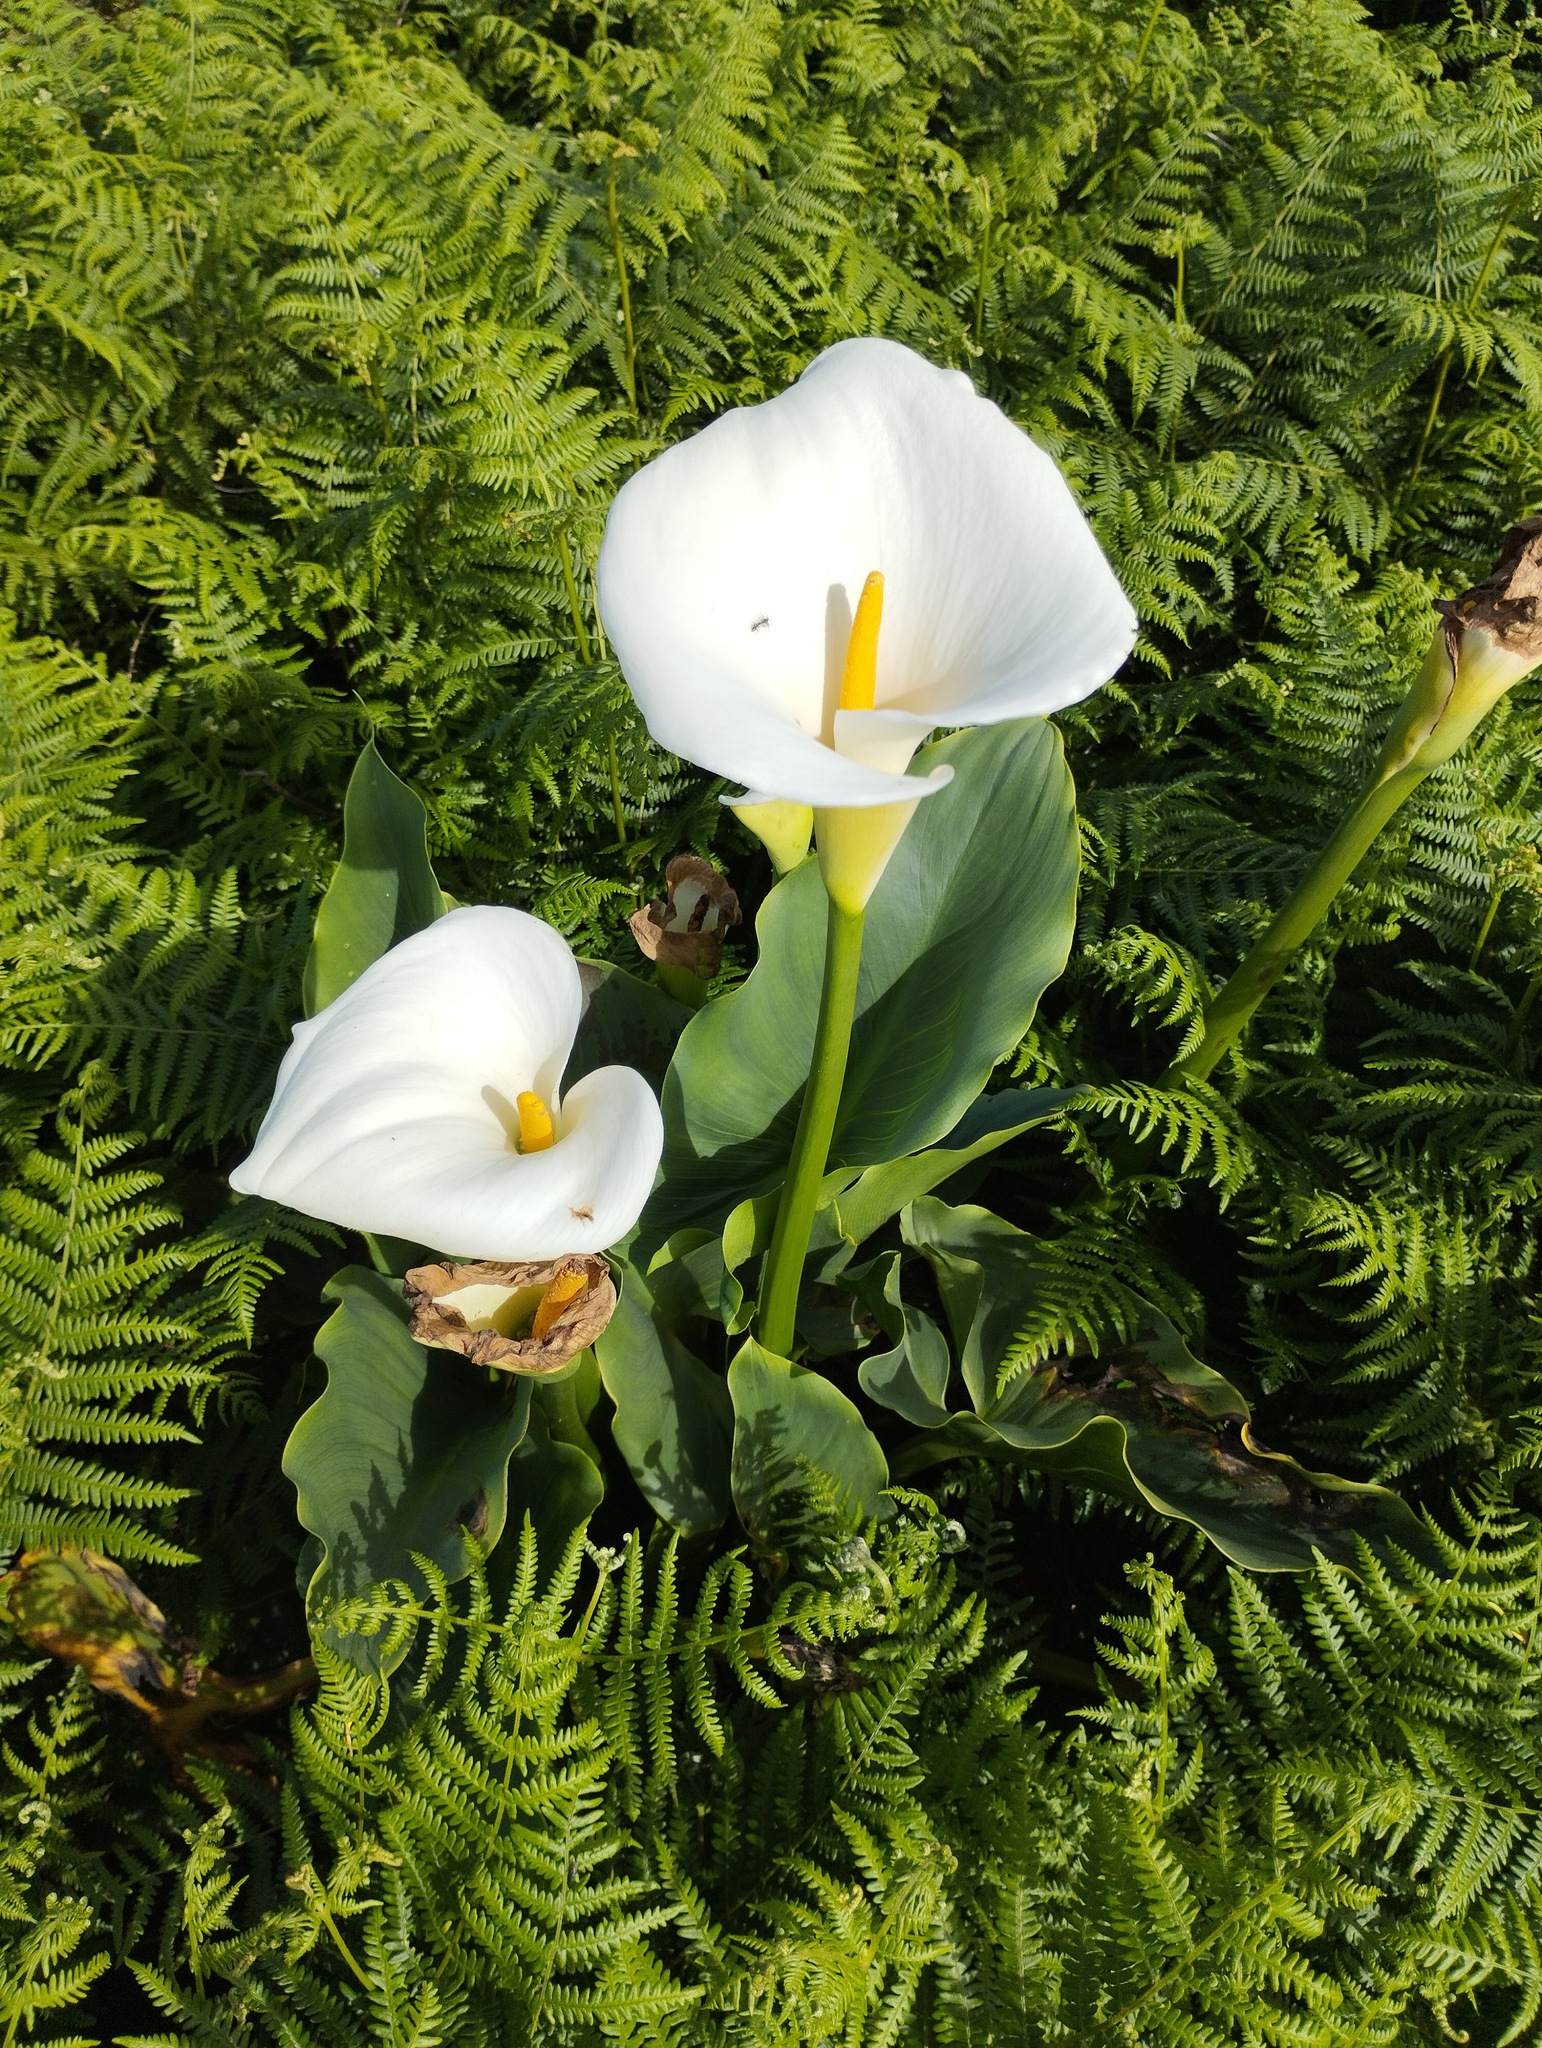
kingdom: Plantae
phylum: Tracheophyta
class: Liliopsida
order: Alismatales
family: Araceae
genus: Zantedeschia
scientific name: Zantedeschia aethiopica
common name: Altar-lily
